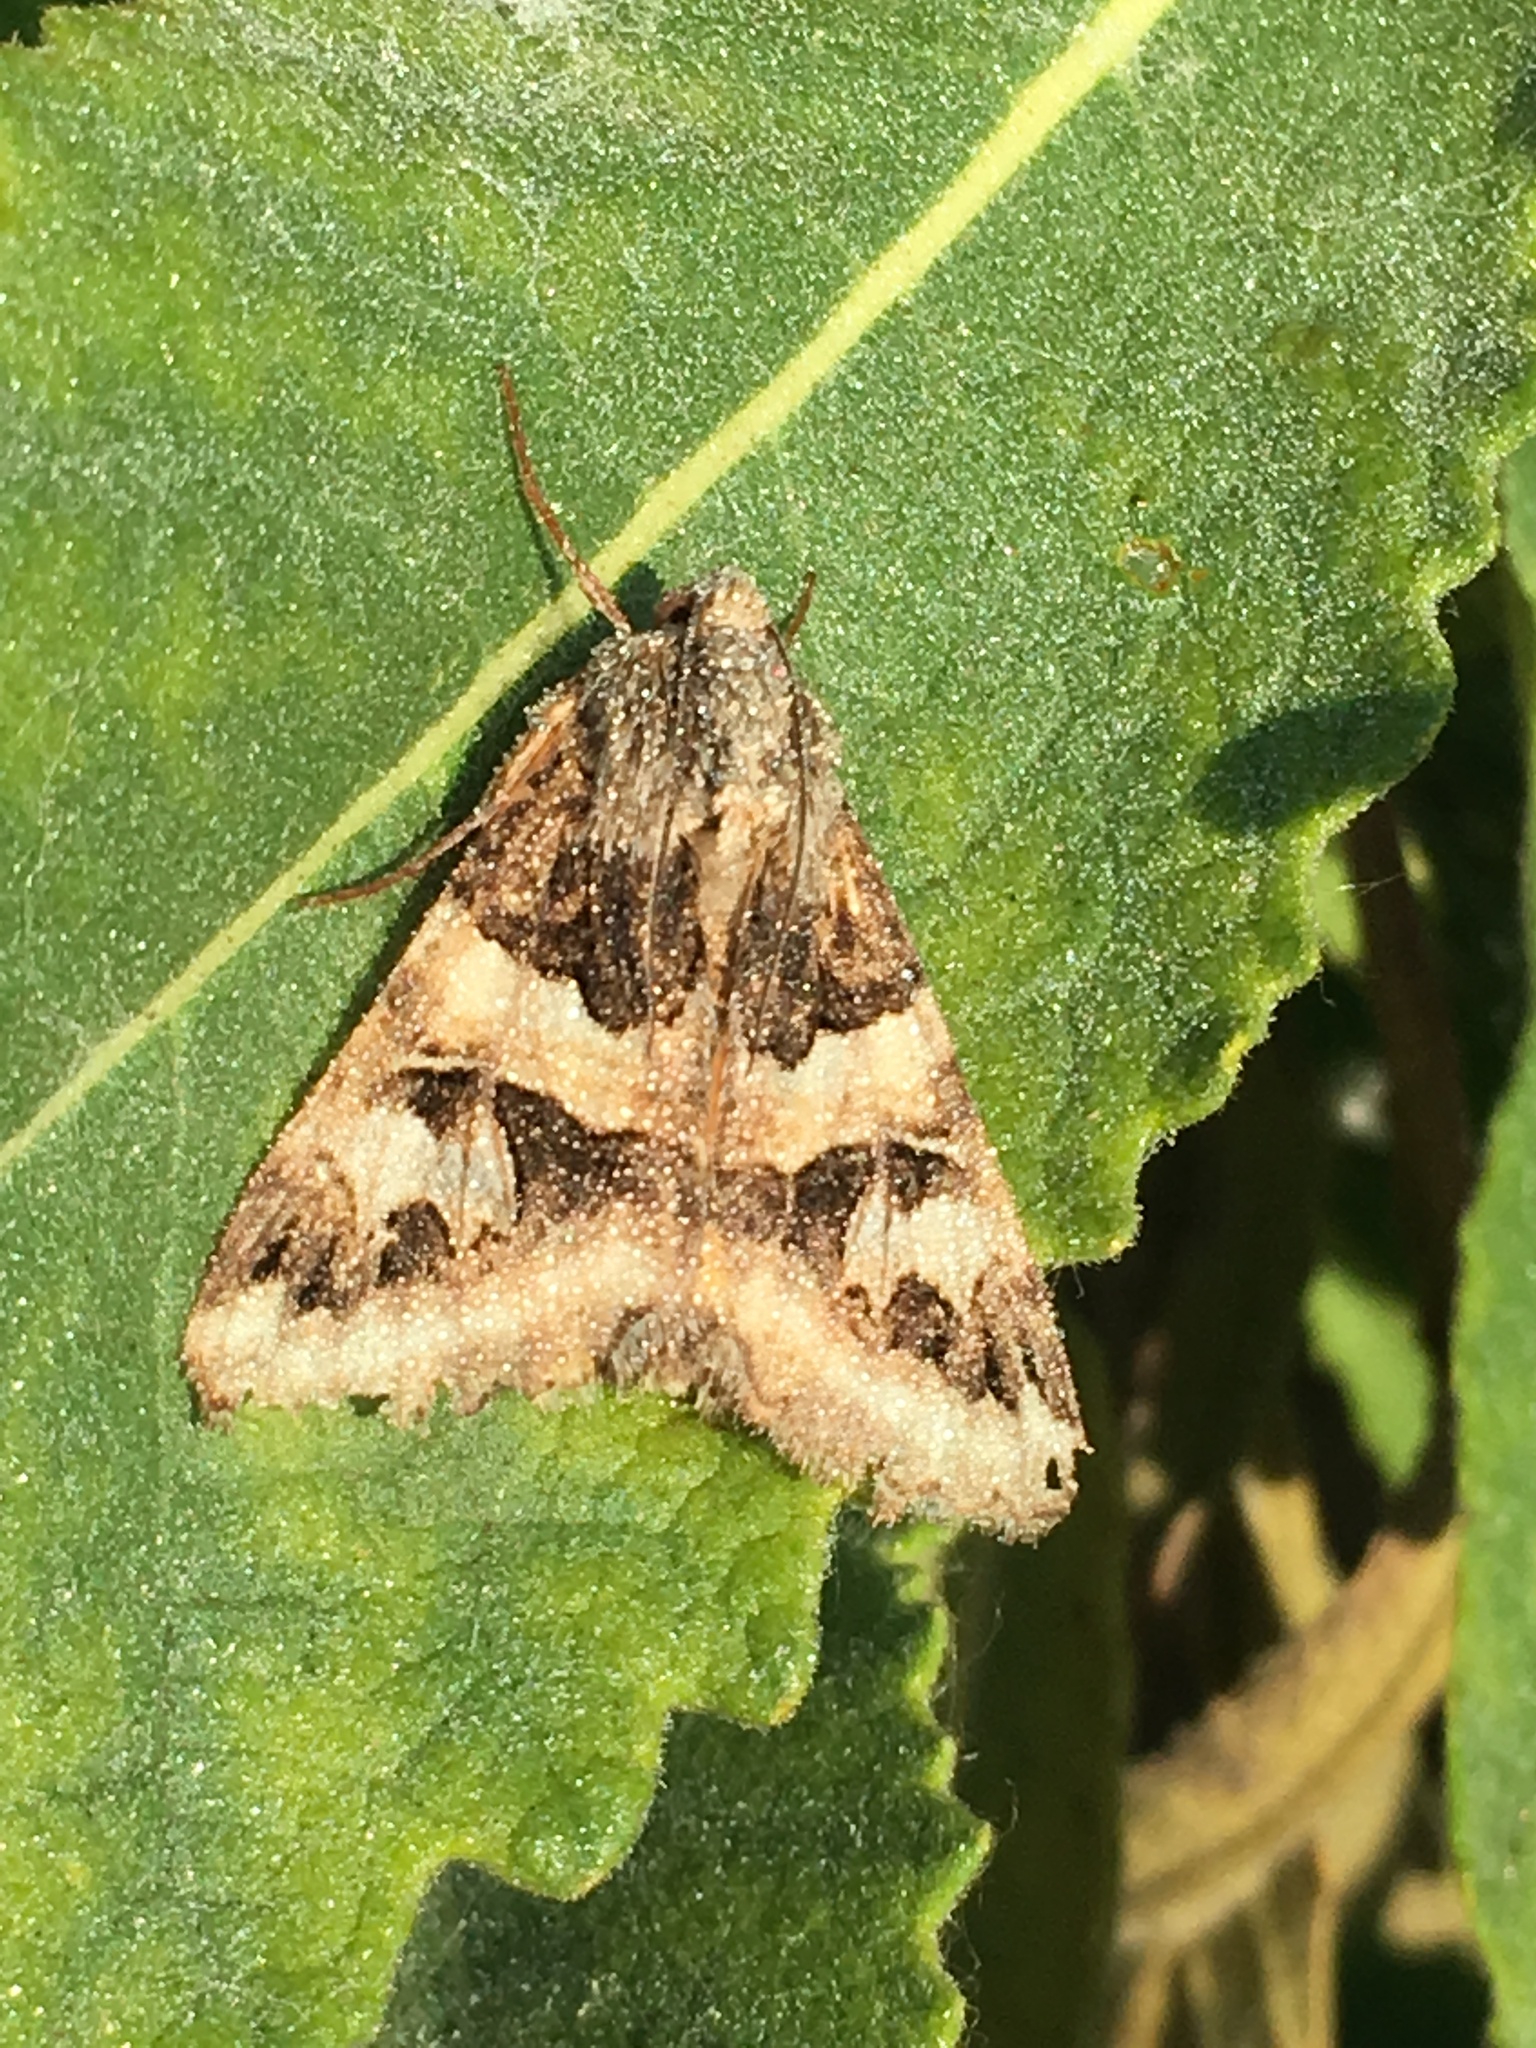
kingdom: Animalia
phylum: Arthropoda
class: Insecta
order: Lepidoptera
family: Erebidae
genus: Drasteria
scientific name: Drasteria divergens
